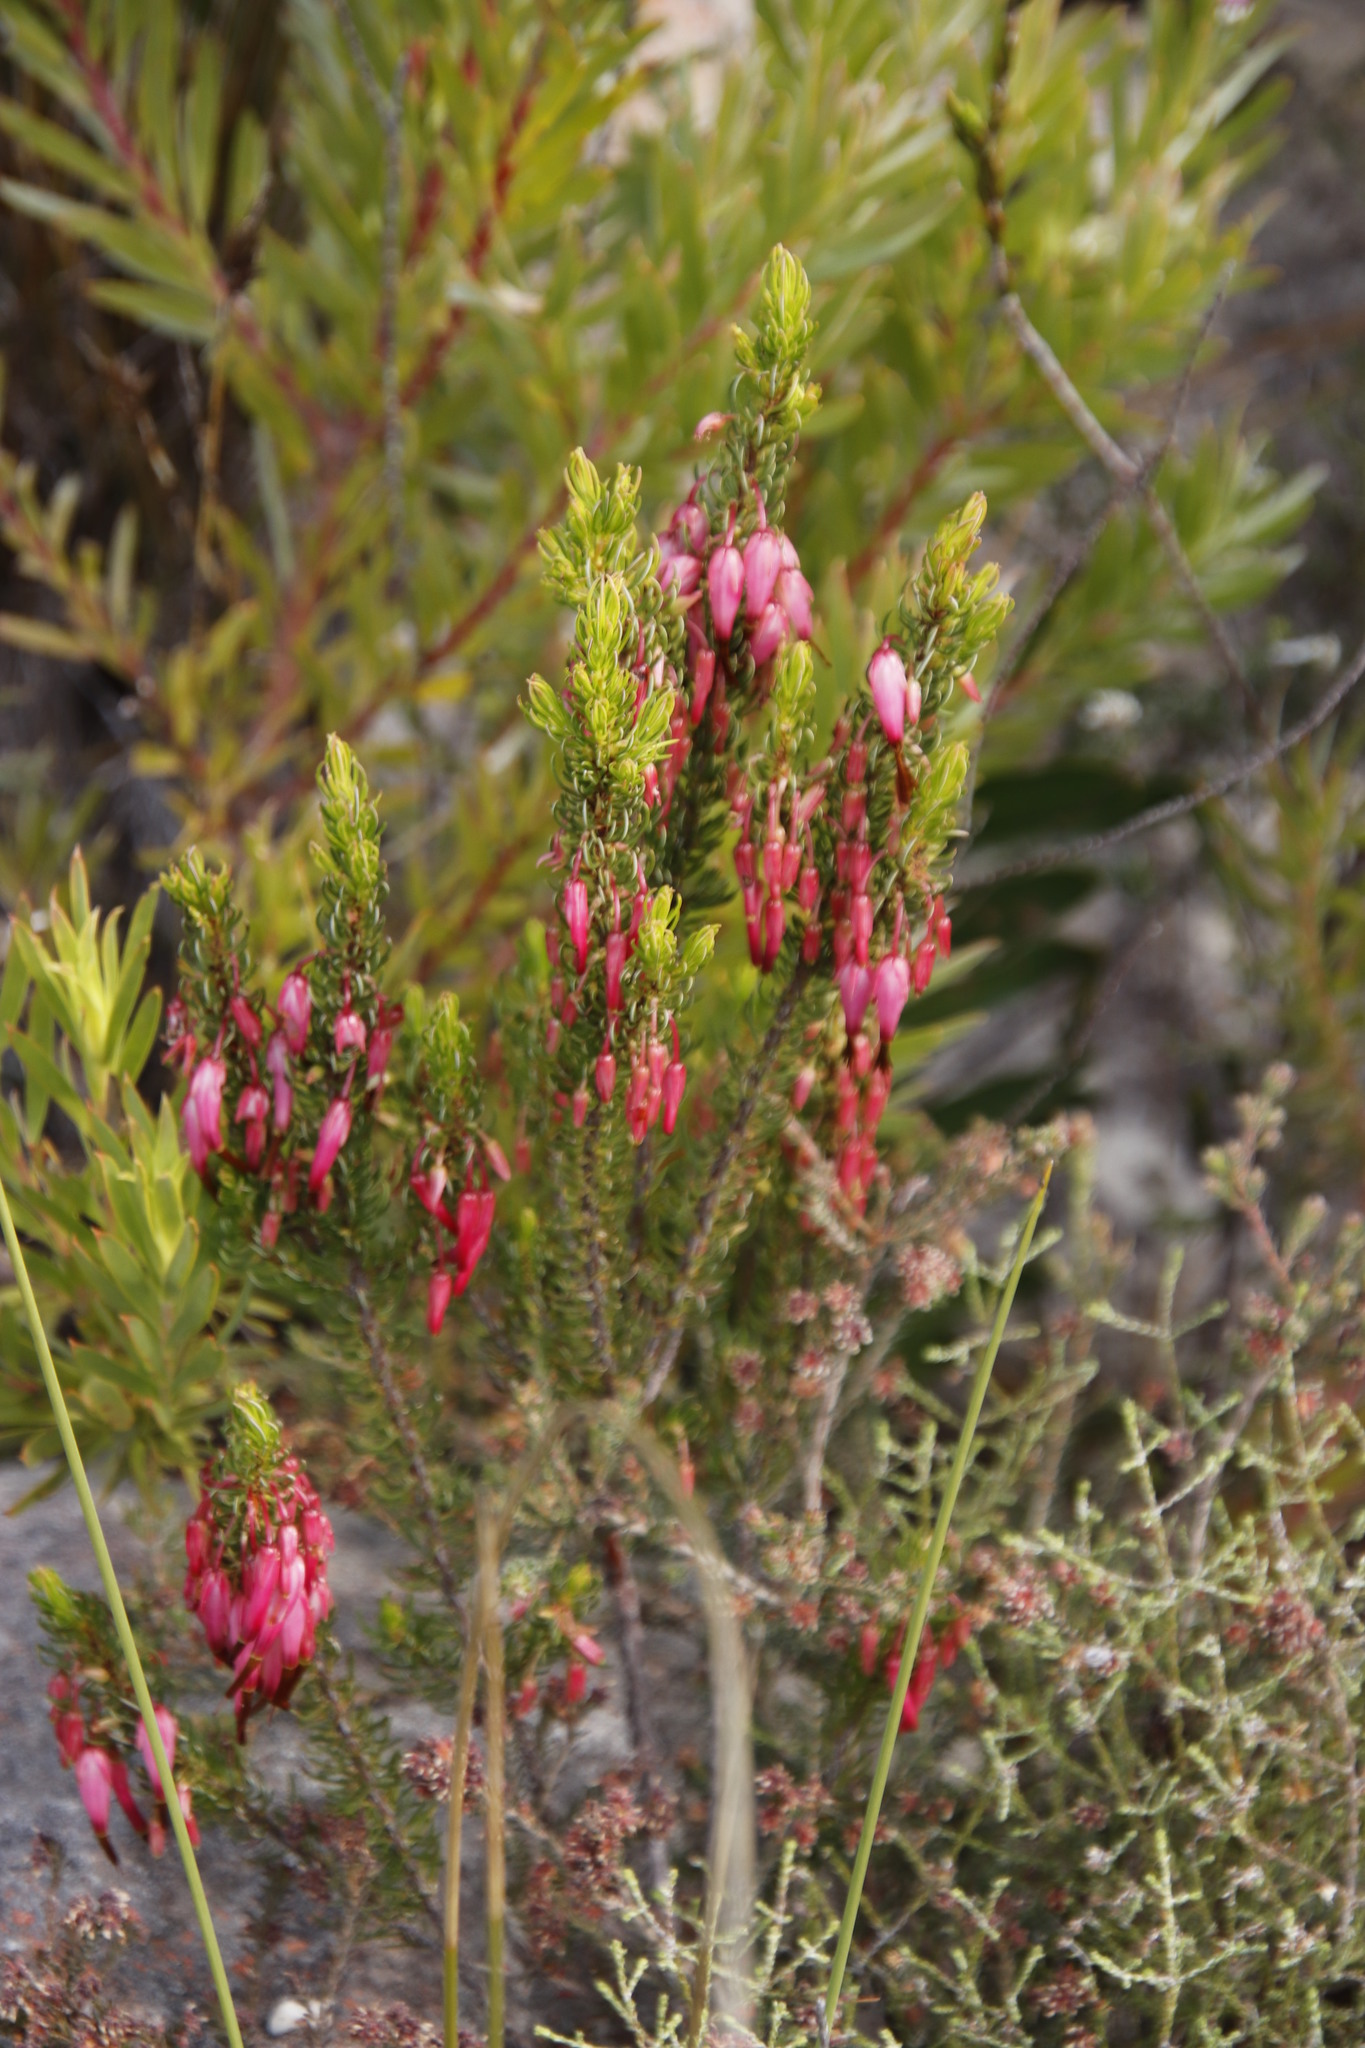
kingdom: Plantae
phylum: Tracheophyta
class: Magnoliopsida
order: Ericales
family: Ericaceae
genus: Erica
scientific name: Erica plukenetii
